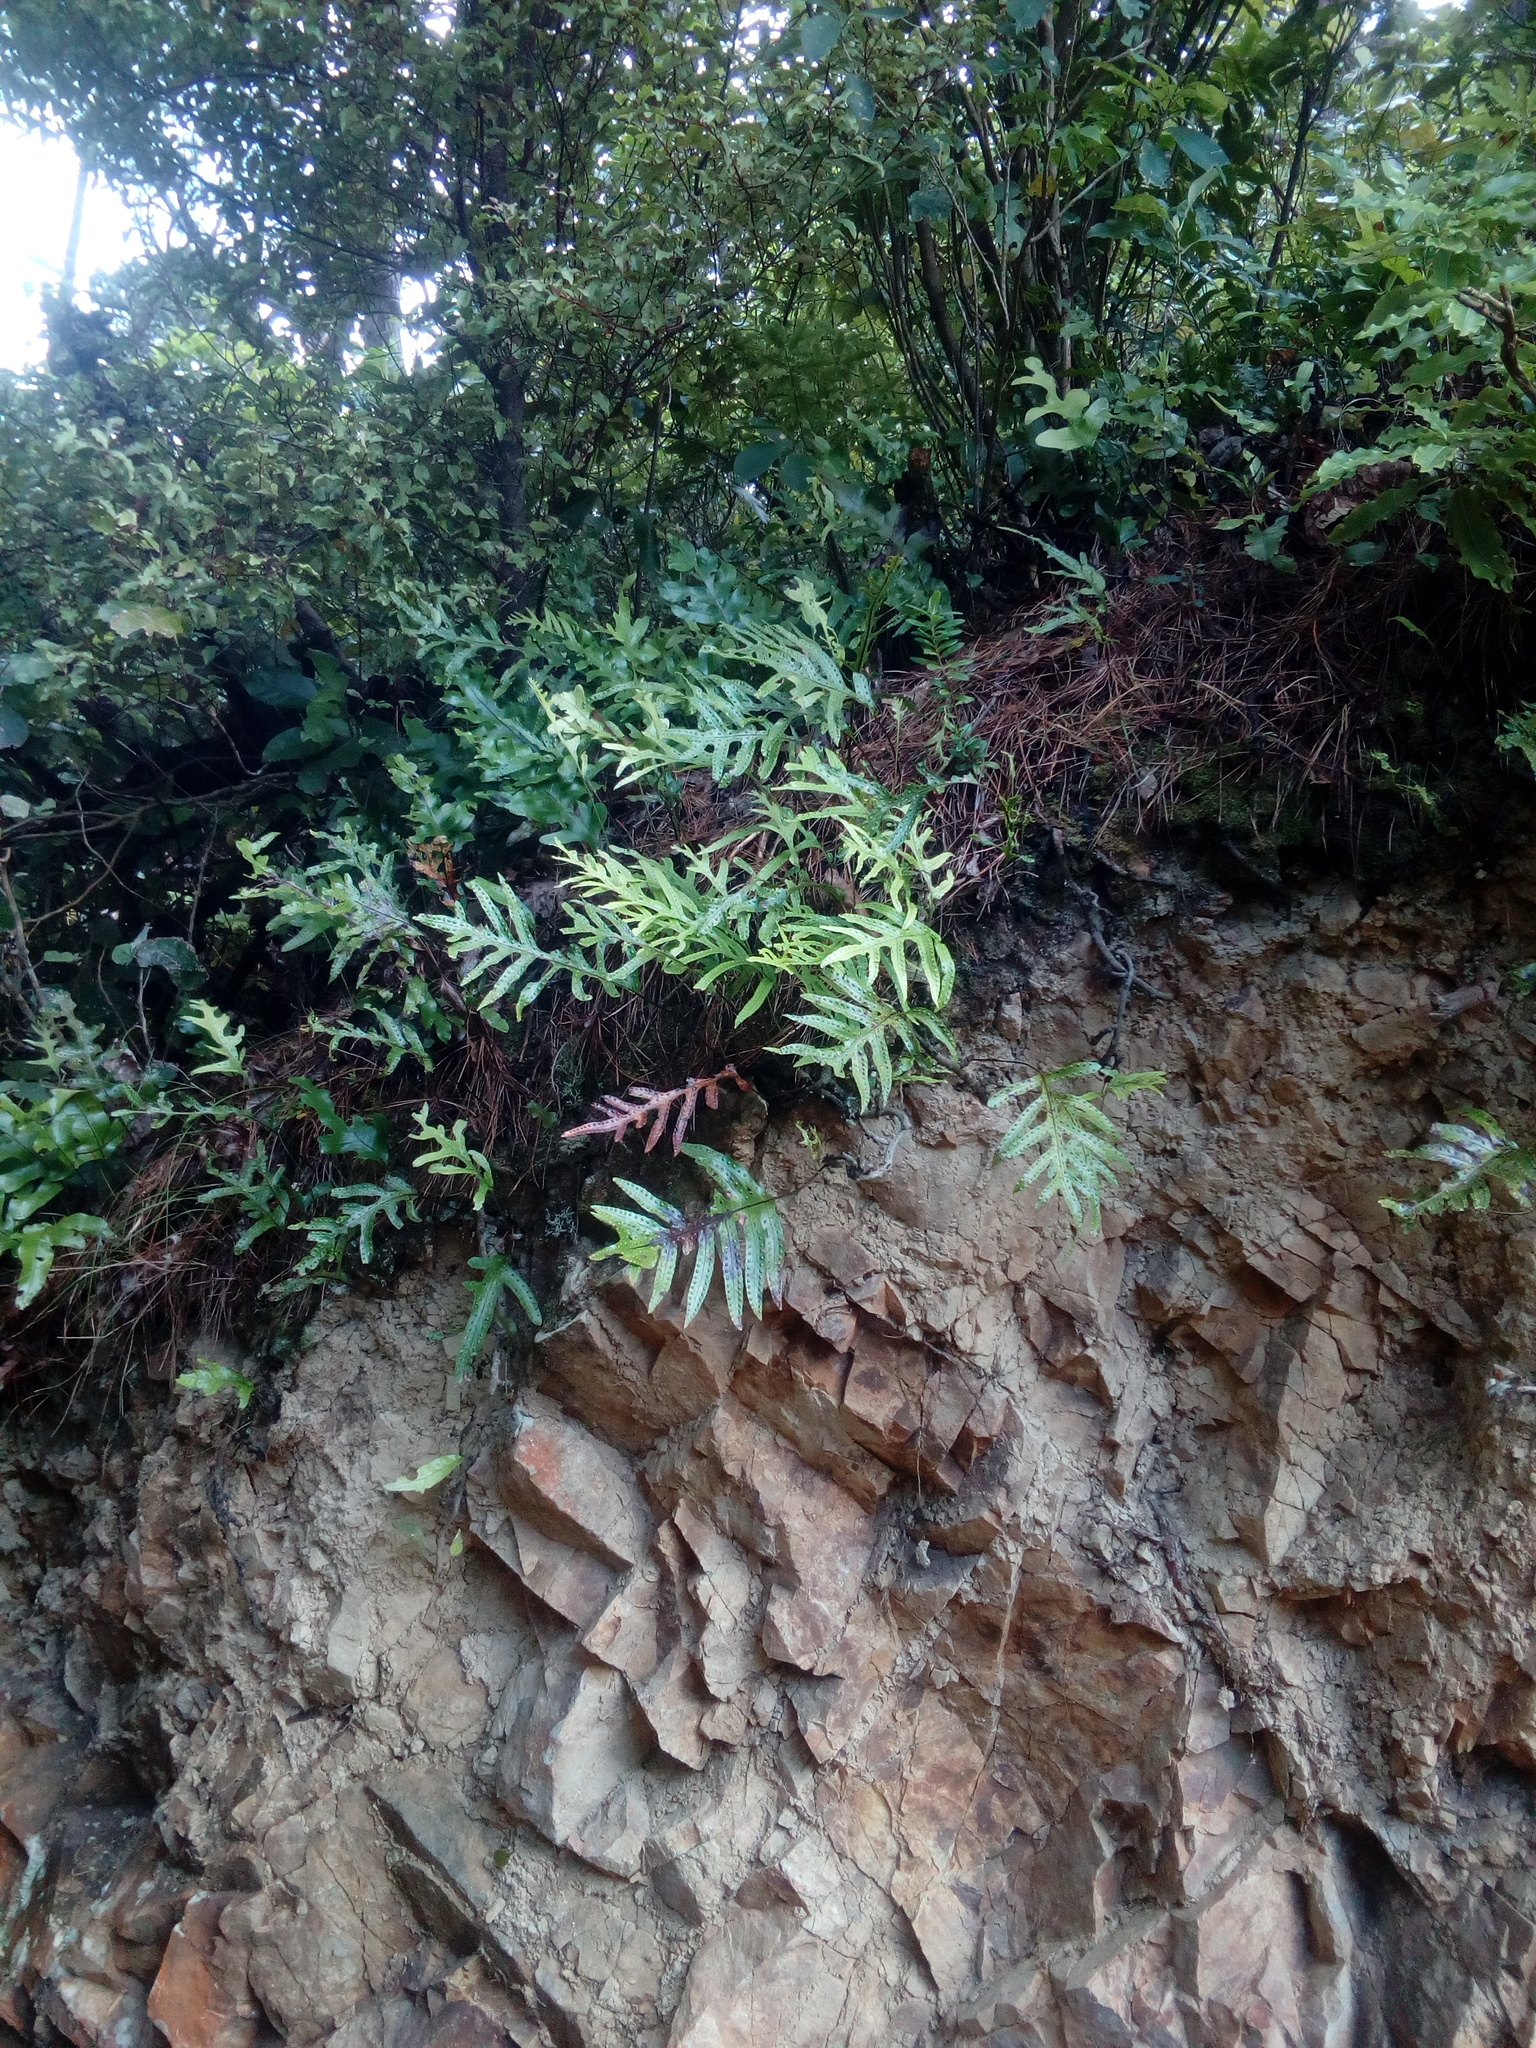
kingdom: Plantae
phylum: Tracheophyta
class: Polypodiopsida
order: Polypodiales
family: Polypodiaceae
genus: Lecanopteris
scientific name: Lecanopteris pustulata
